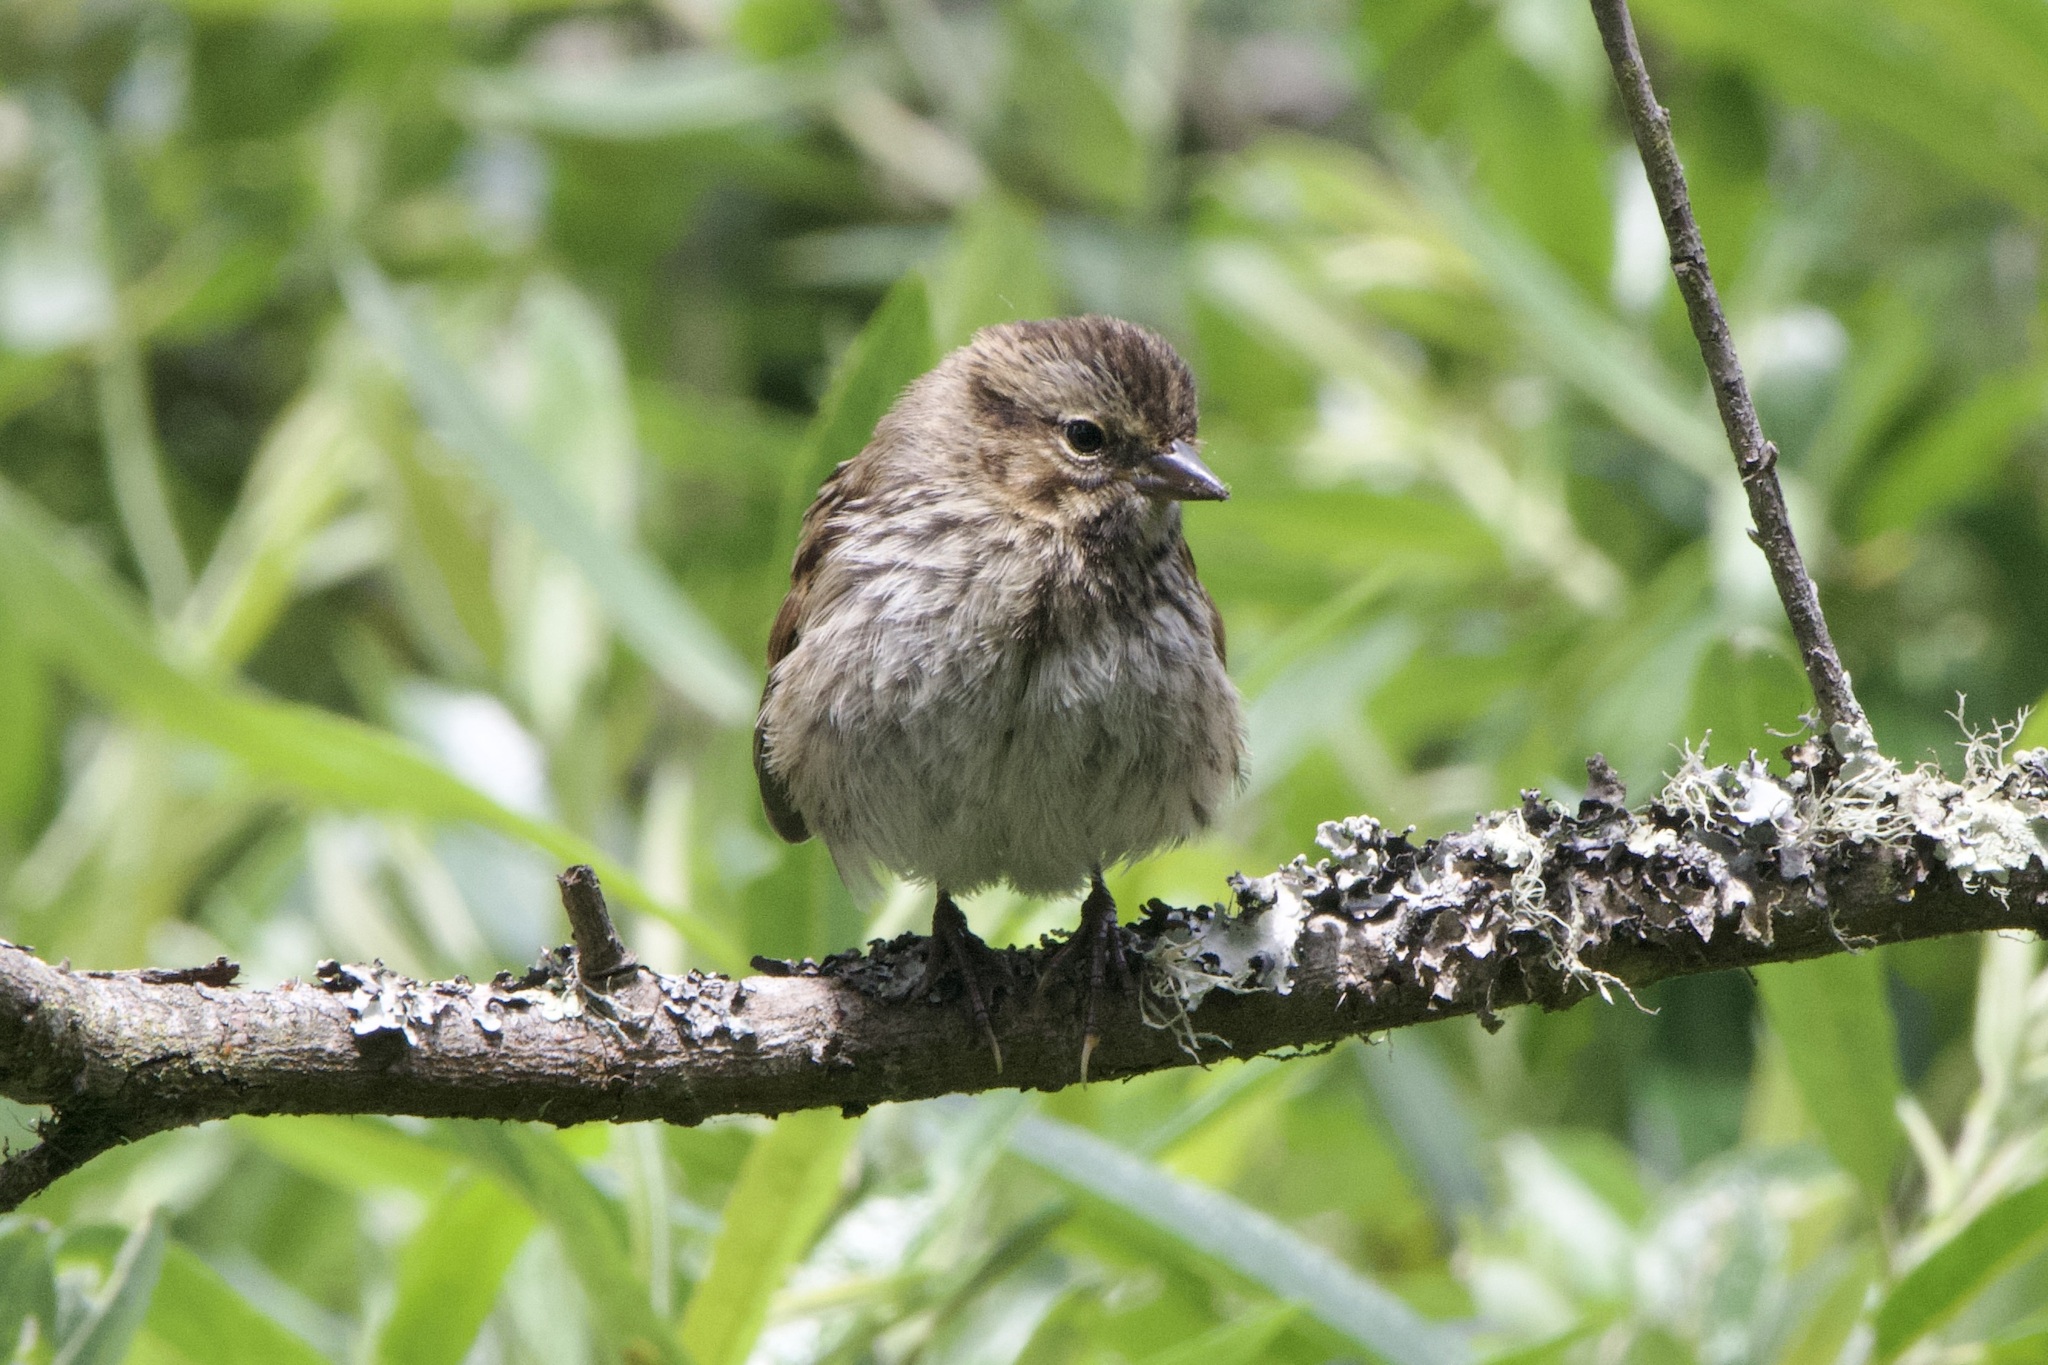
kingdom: Animalia
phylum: Chordata
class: Aves
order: Passeriformes
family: Passerellidae
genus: Melospiza
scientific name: Melospiza melodia
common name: Song sparrow
